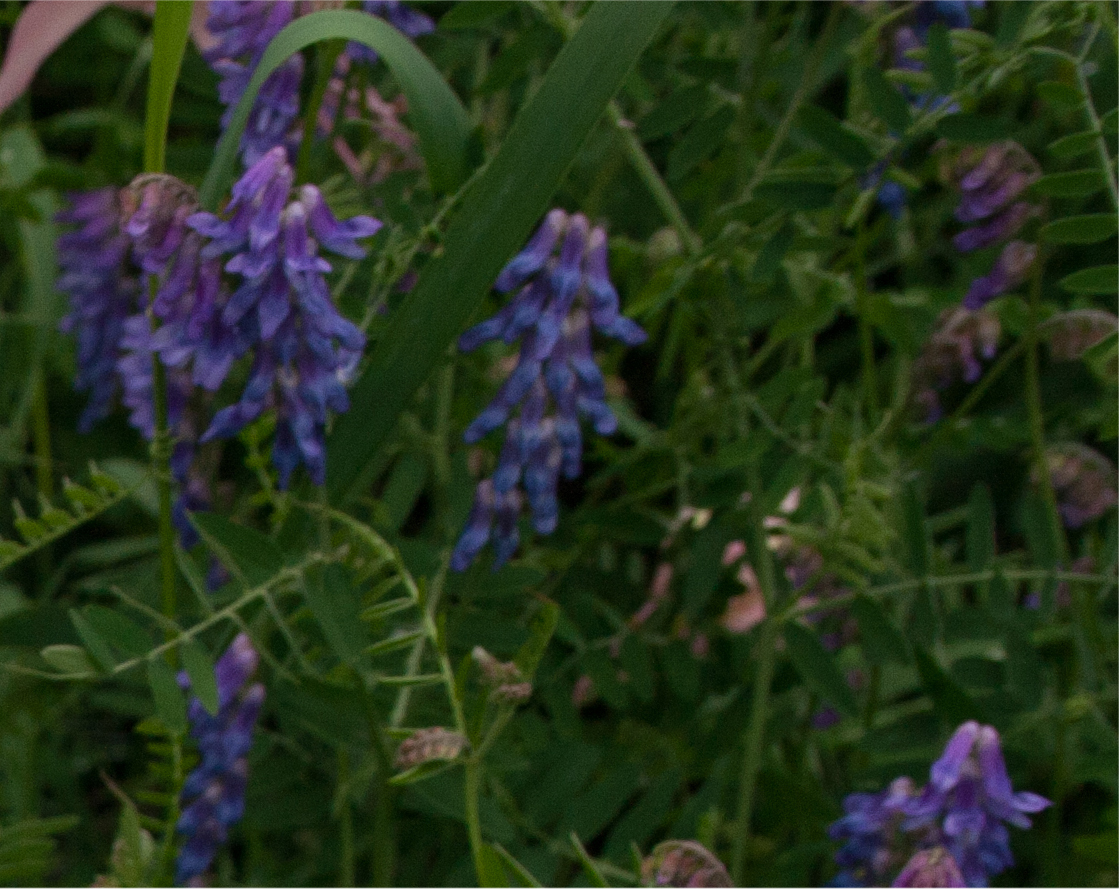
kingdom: Plantae
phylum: Tracheophyta
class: Magnoliopsida
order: Fabales
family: Fabaceae
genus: Vicia
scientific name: Vicia cracca
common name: Bird vetch
